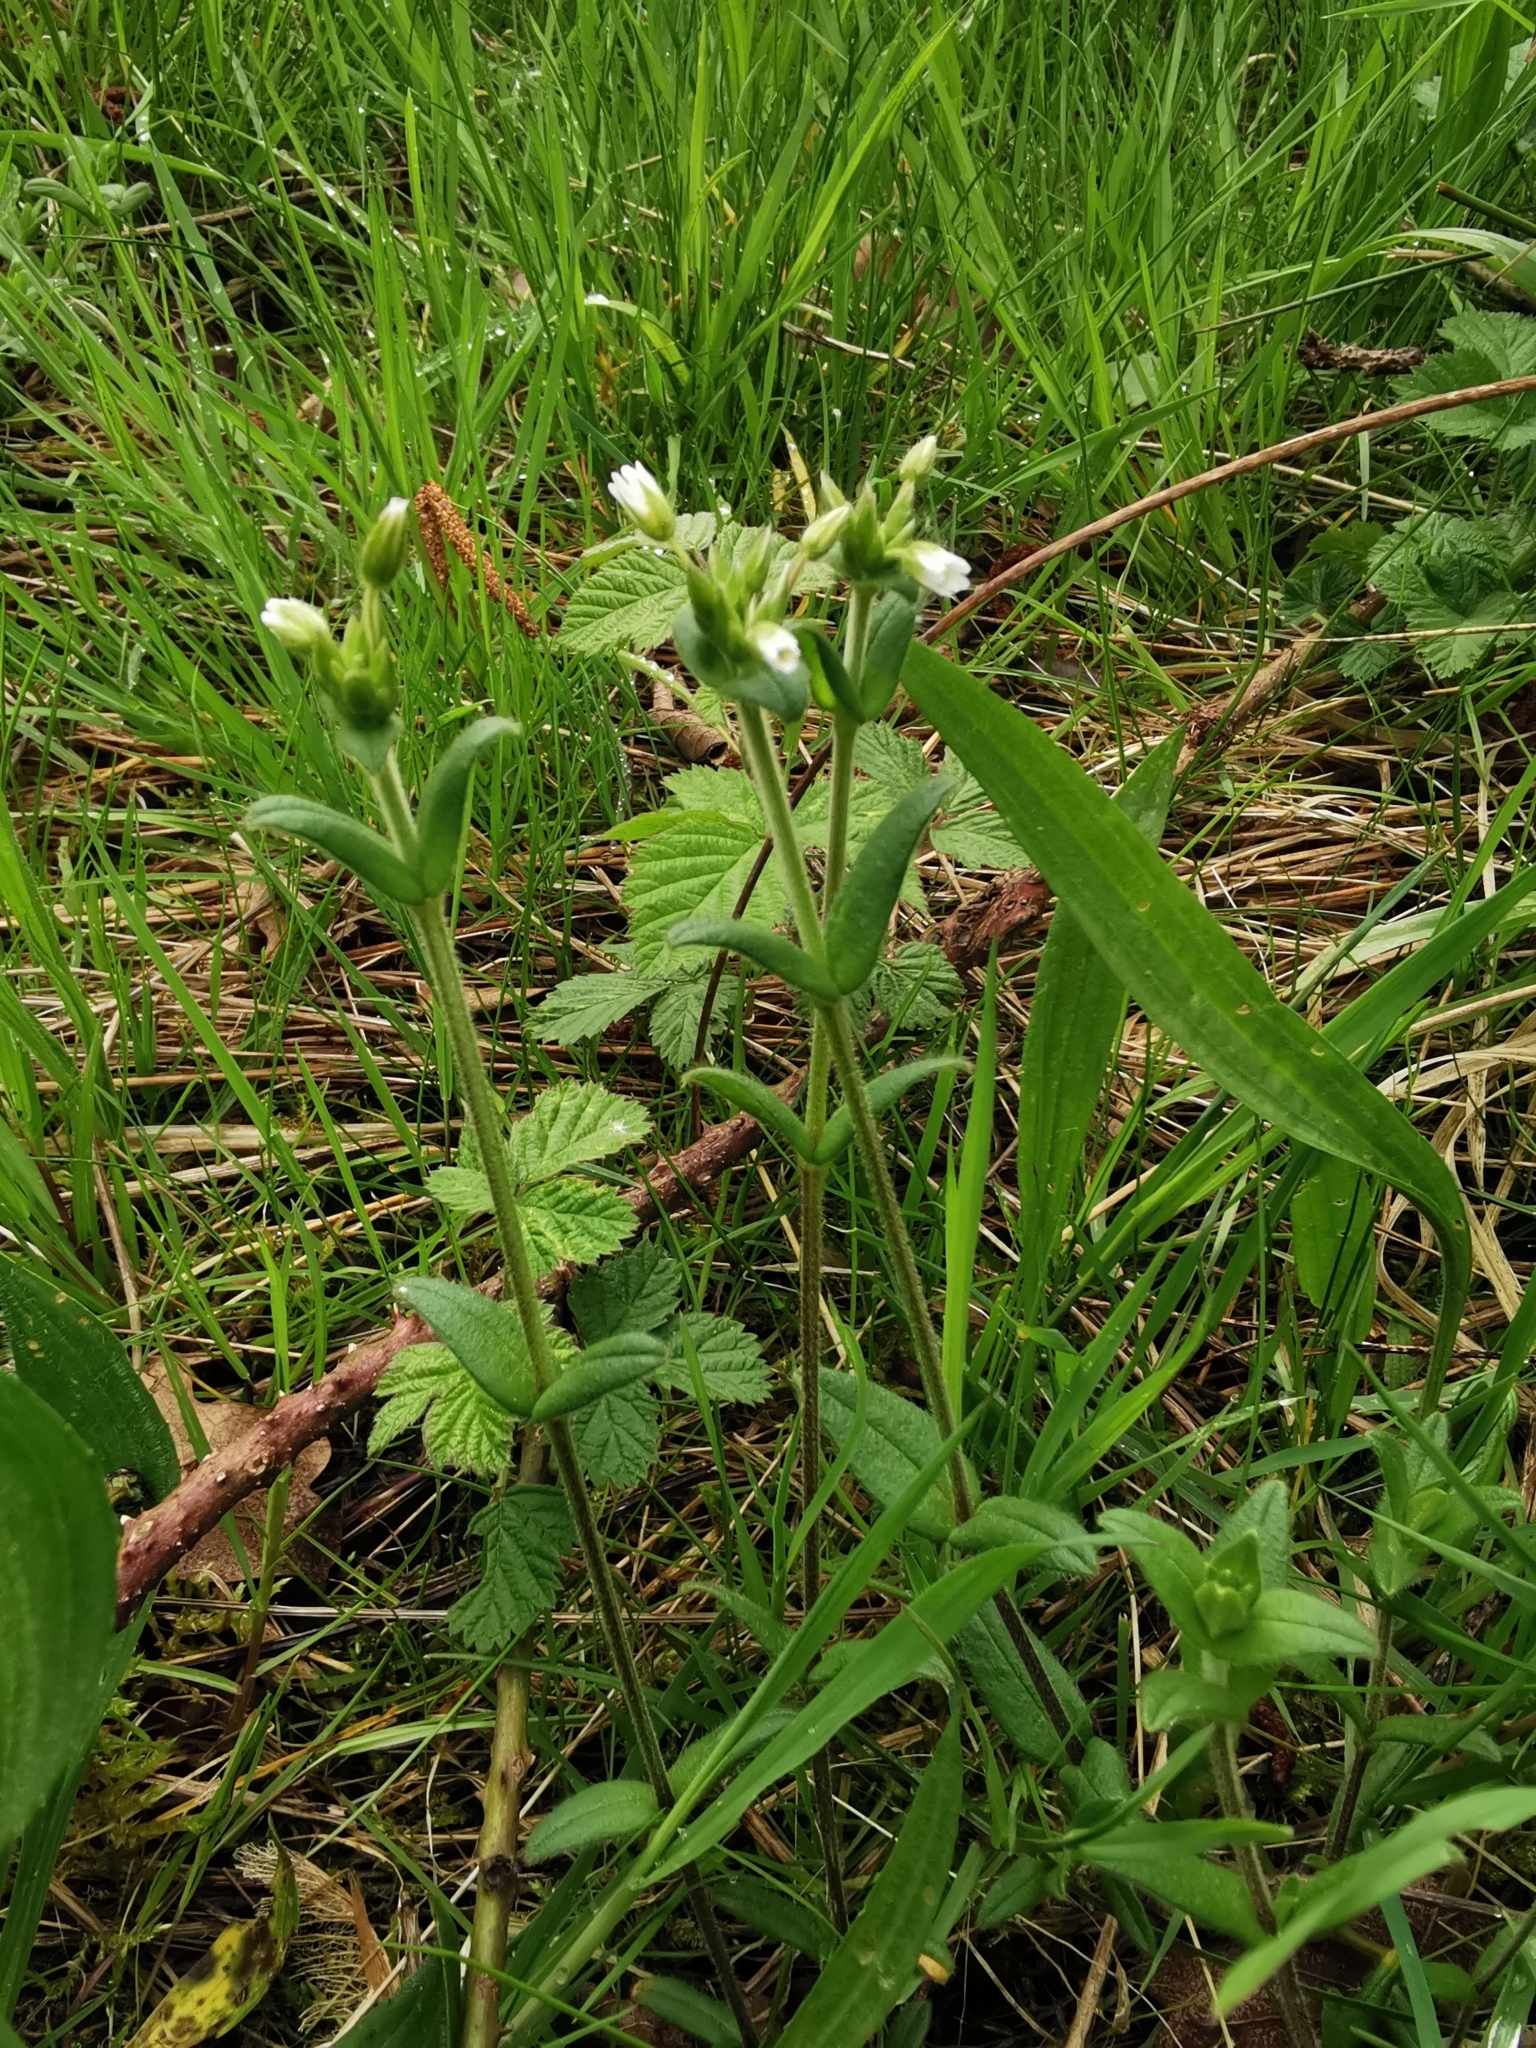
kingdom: Plantae
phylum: Tracheophyta
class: Magnoliopsida
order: Caryophyllales
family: Caryophyllaceae
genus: Cerastium
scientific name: Cerastium fontanum
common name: Common mouse-ear
